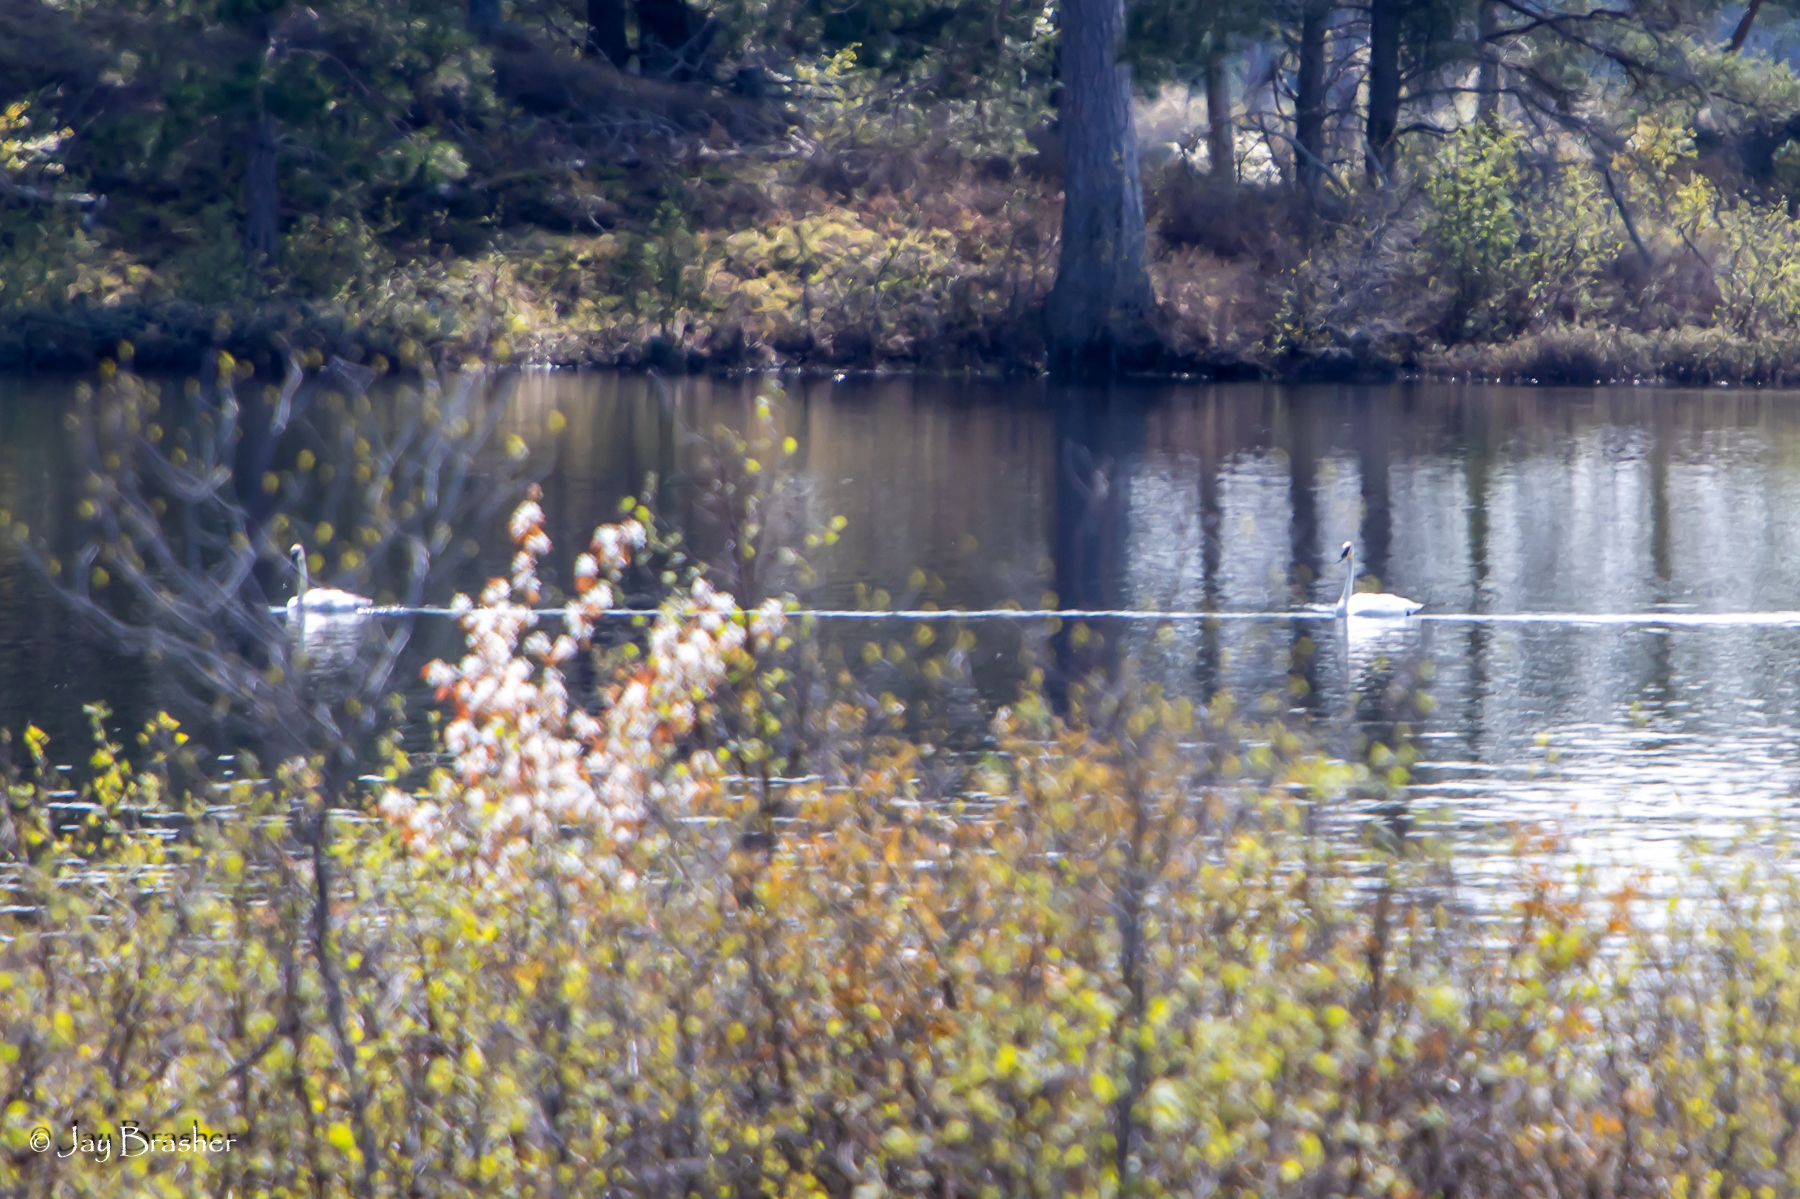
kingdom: Animalia
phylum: Chordata
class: Aves
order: Anseriformes
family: Anatidae
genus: Cygnus
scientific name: Cygnus buccinator
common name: Trumpeter swan
